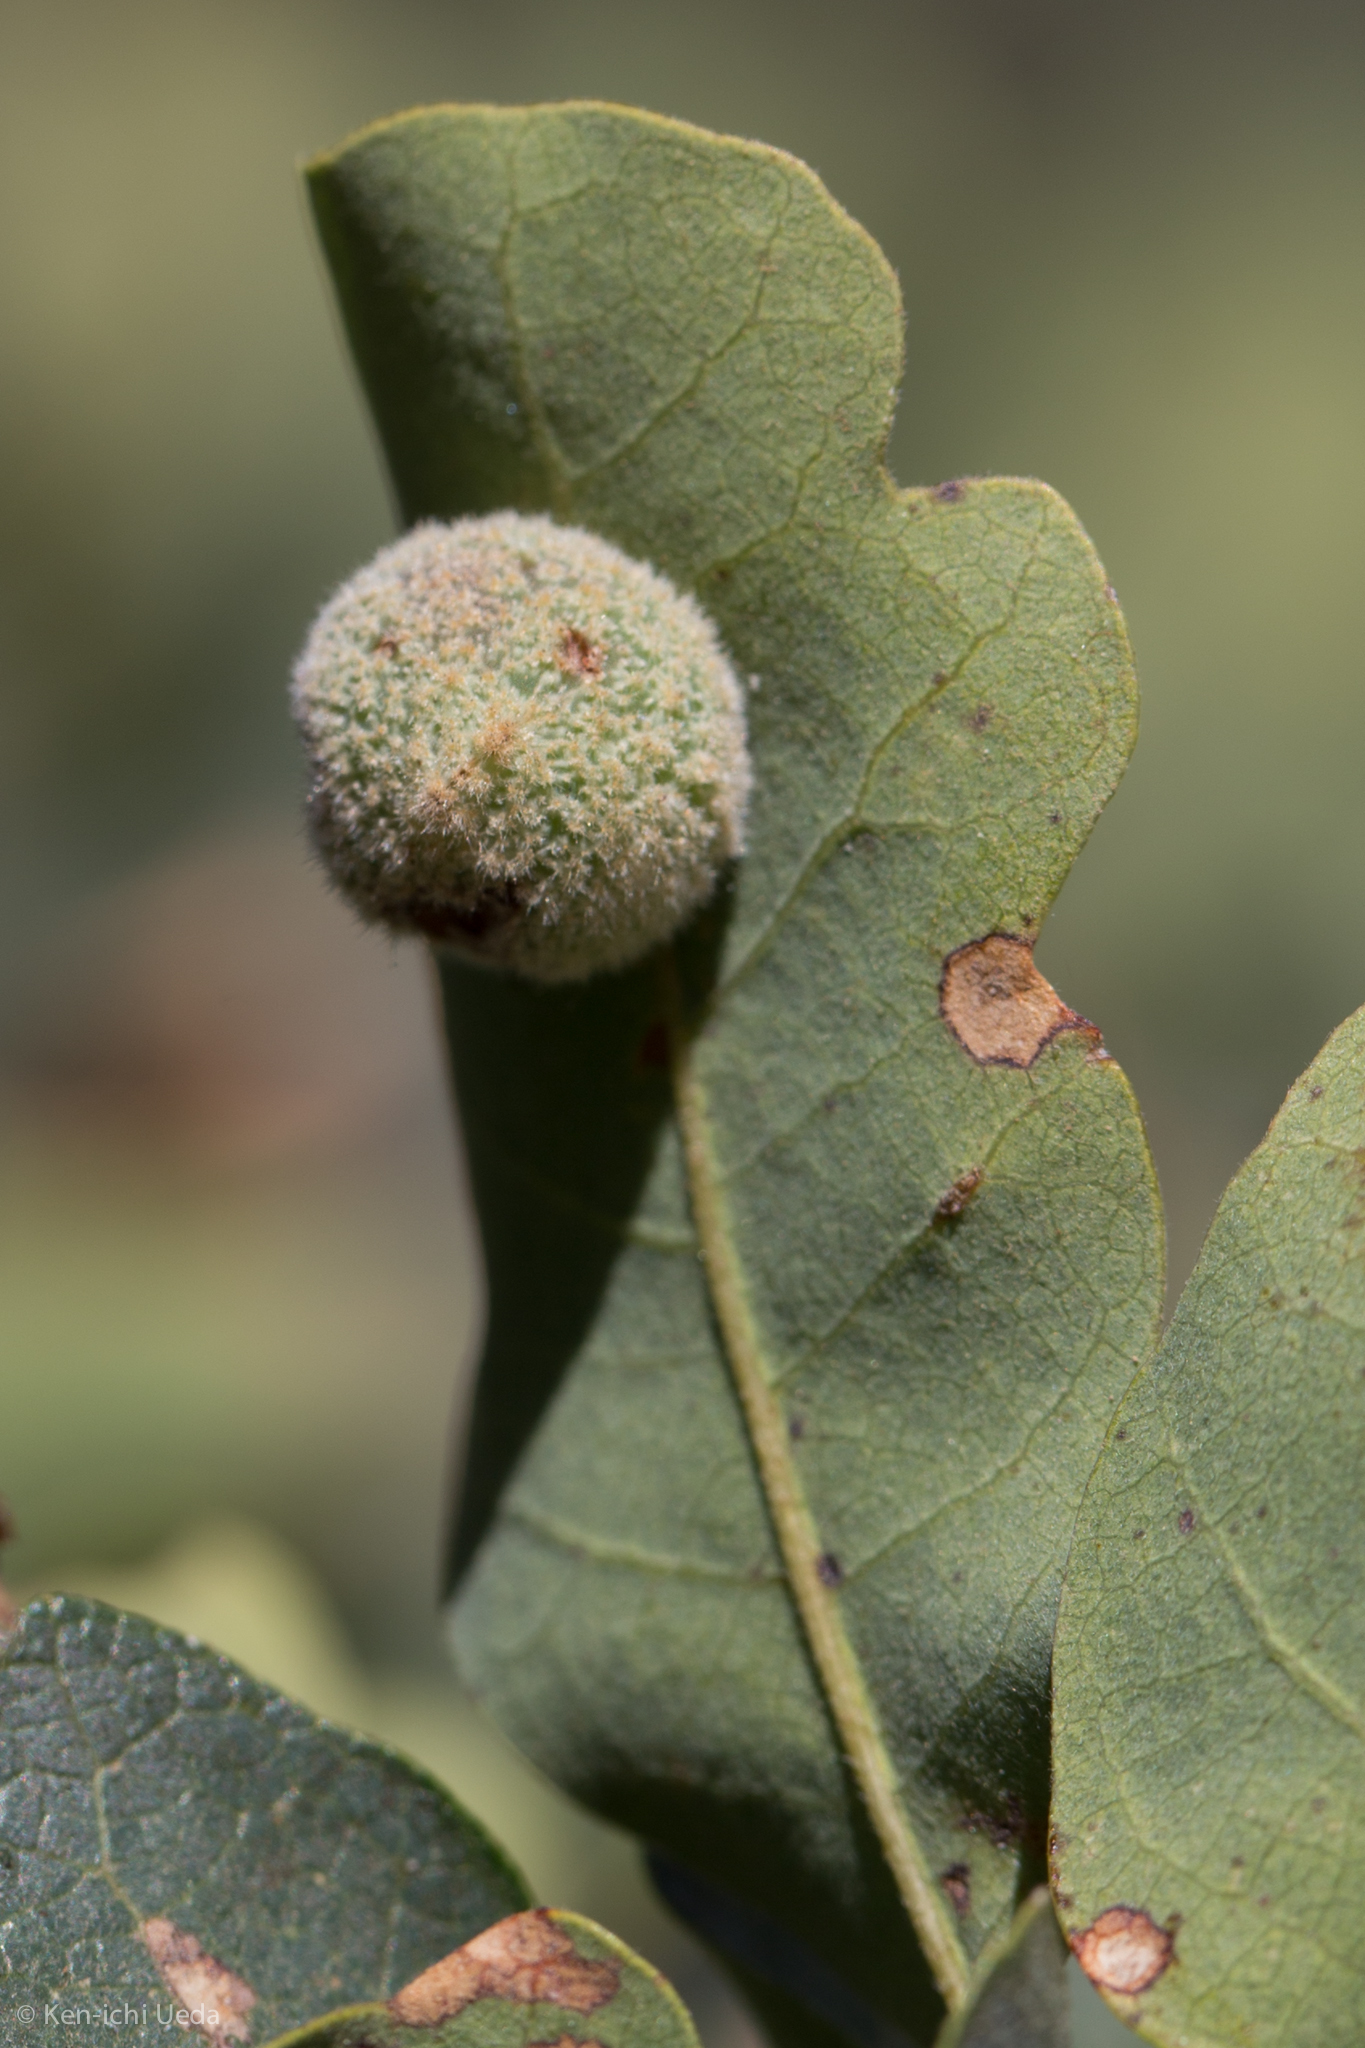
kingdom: Animalia
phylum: Arthropoda
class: Insecta
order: Hymenoptera
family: Cynipidae
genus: Cynips
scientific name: Cynips
